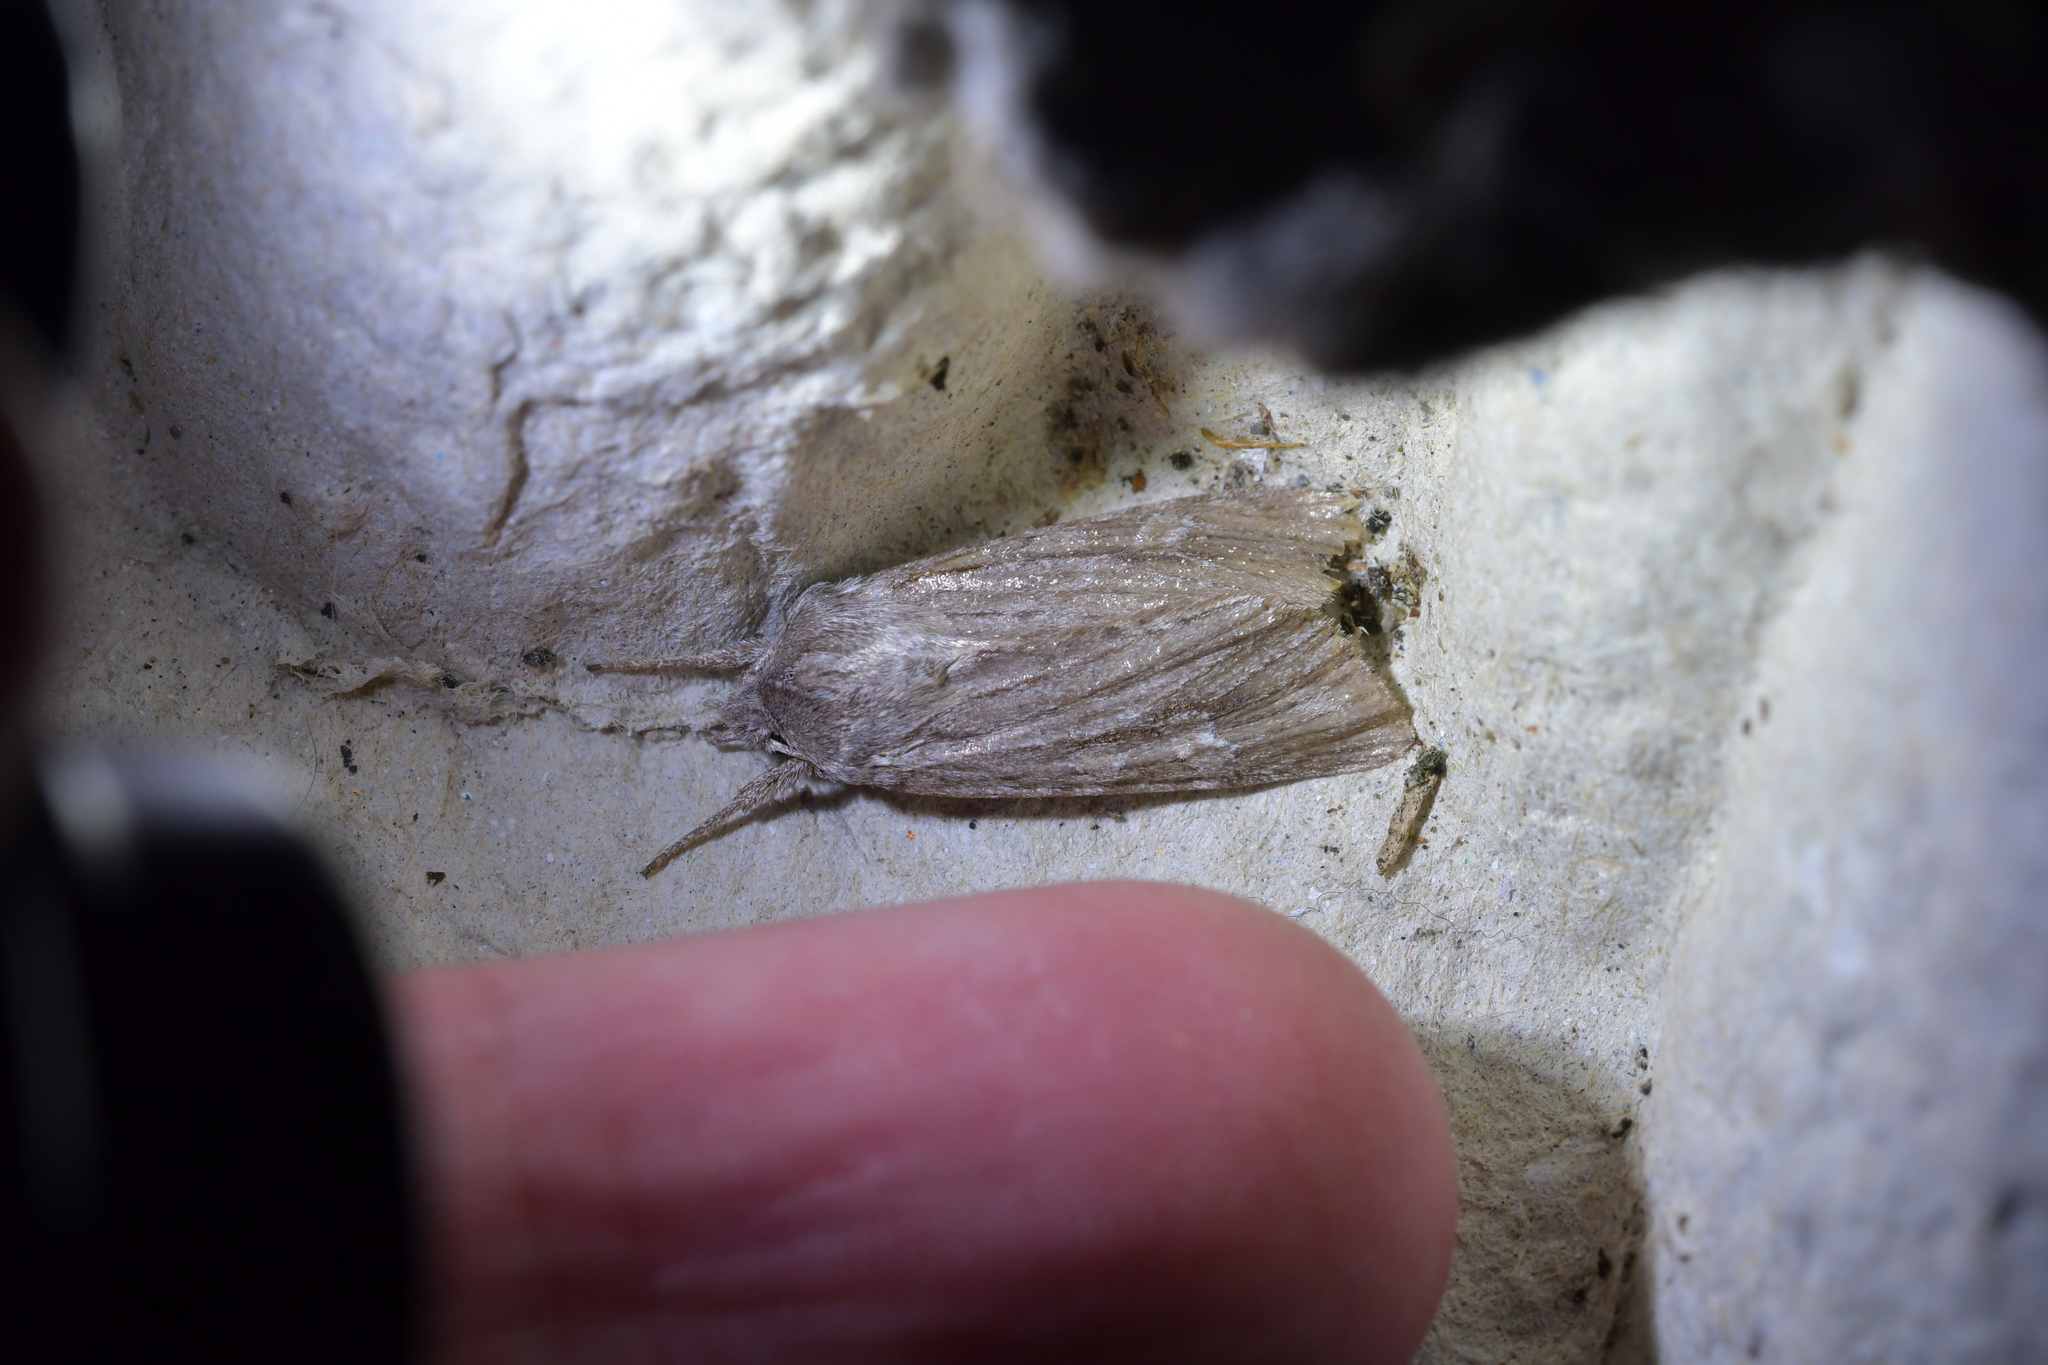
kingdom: Animalia
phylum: Arthropoda
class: Insecta
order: Lepidoptera
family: Noctuidae
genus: Physetica
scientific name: Physetica sequens
